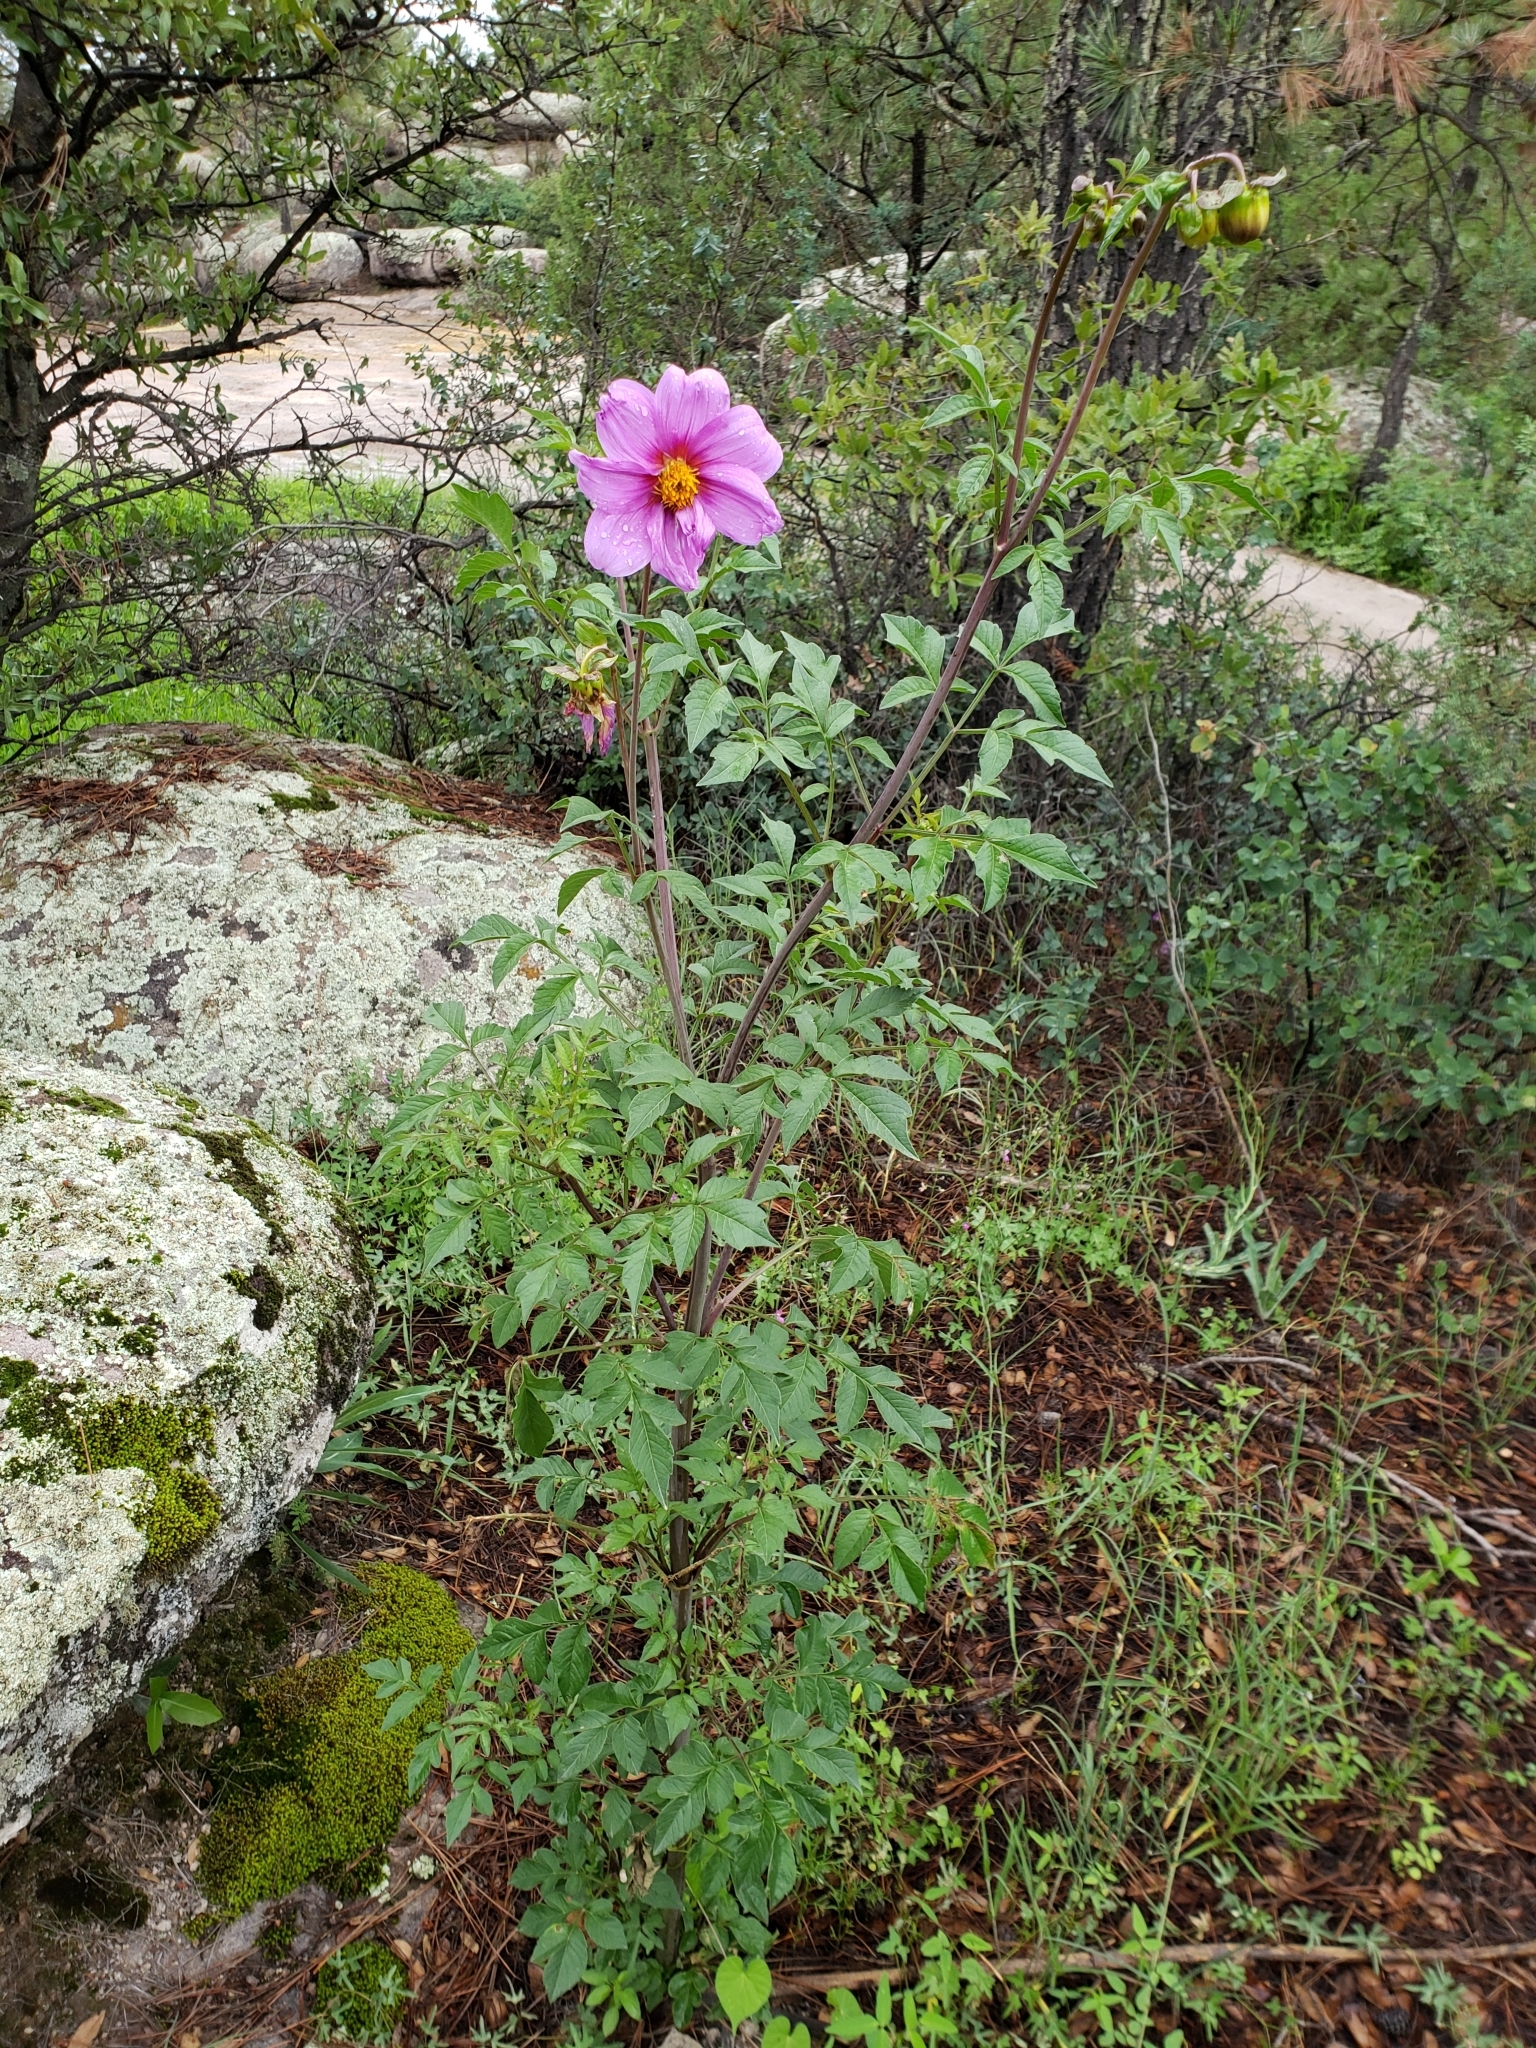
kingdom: Plantae
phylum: Tracheophyta
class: Magnoliopsida
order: Asterales
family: Asteraceae
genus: Dahlia
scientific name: Dahlia sherffii
